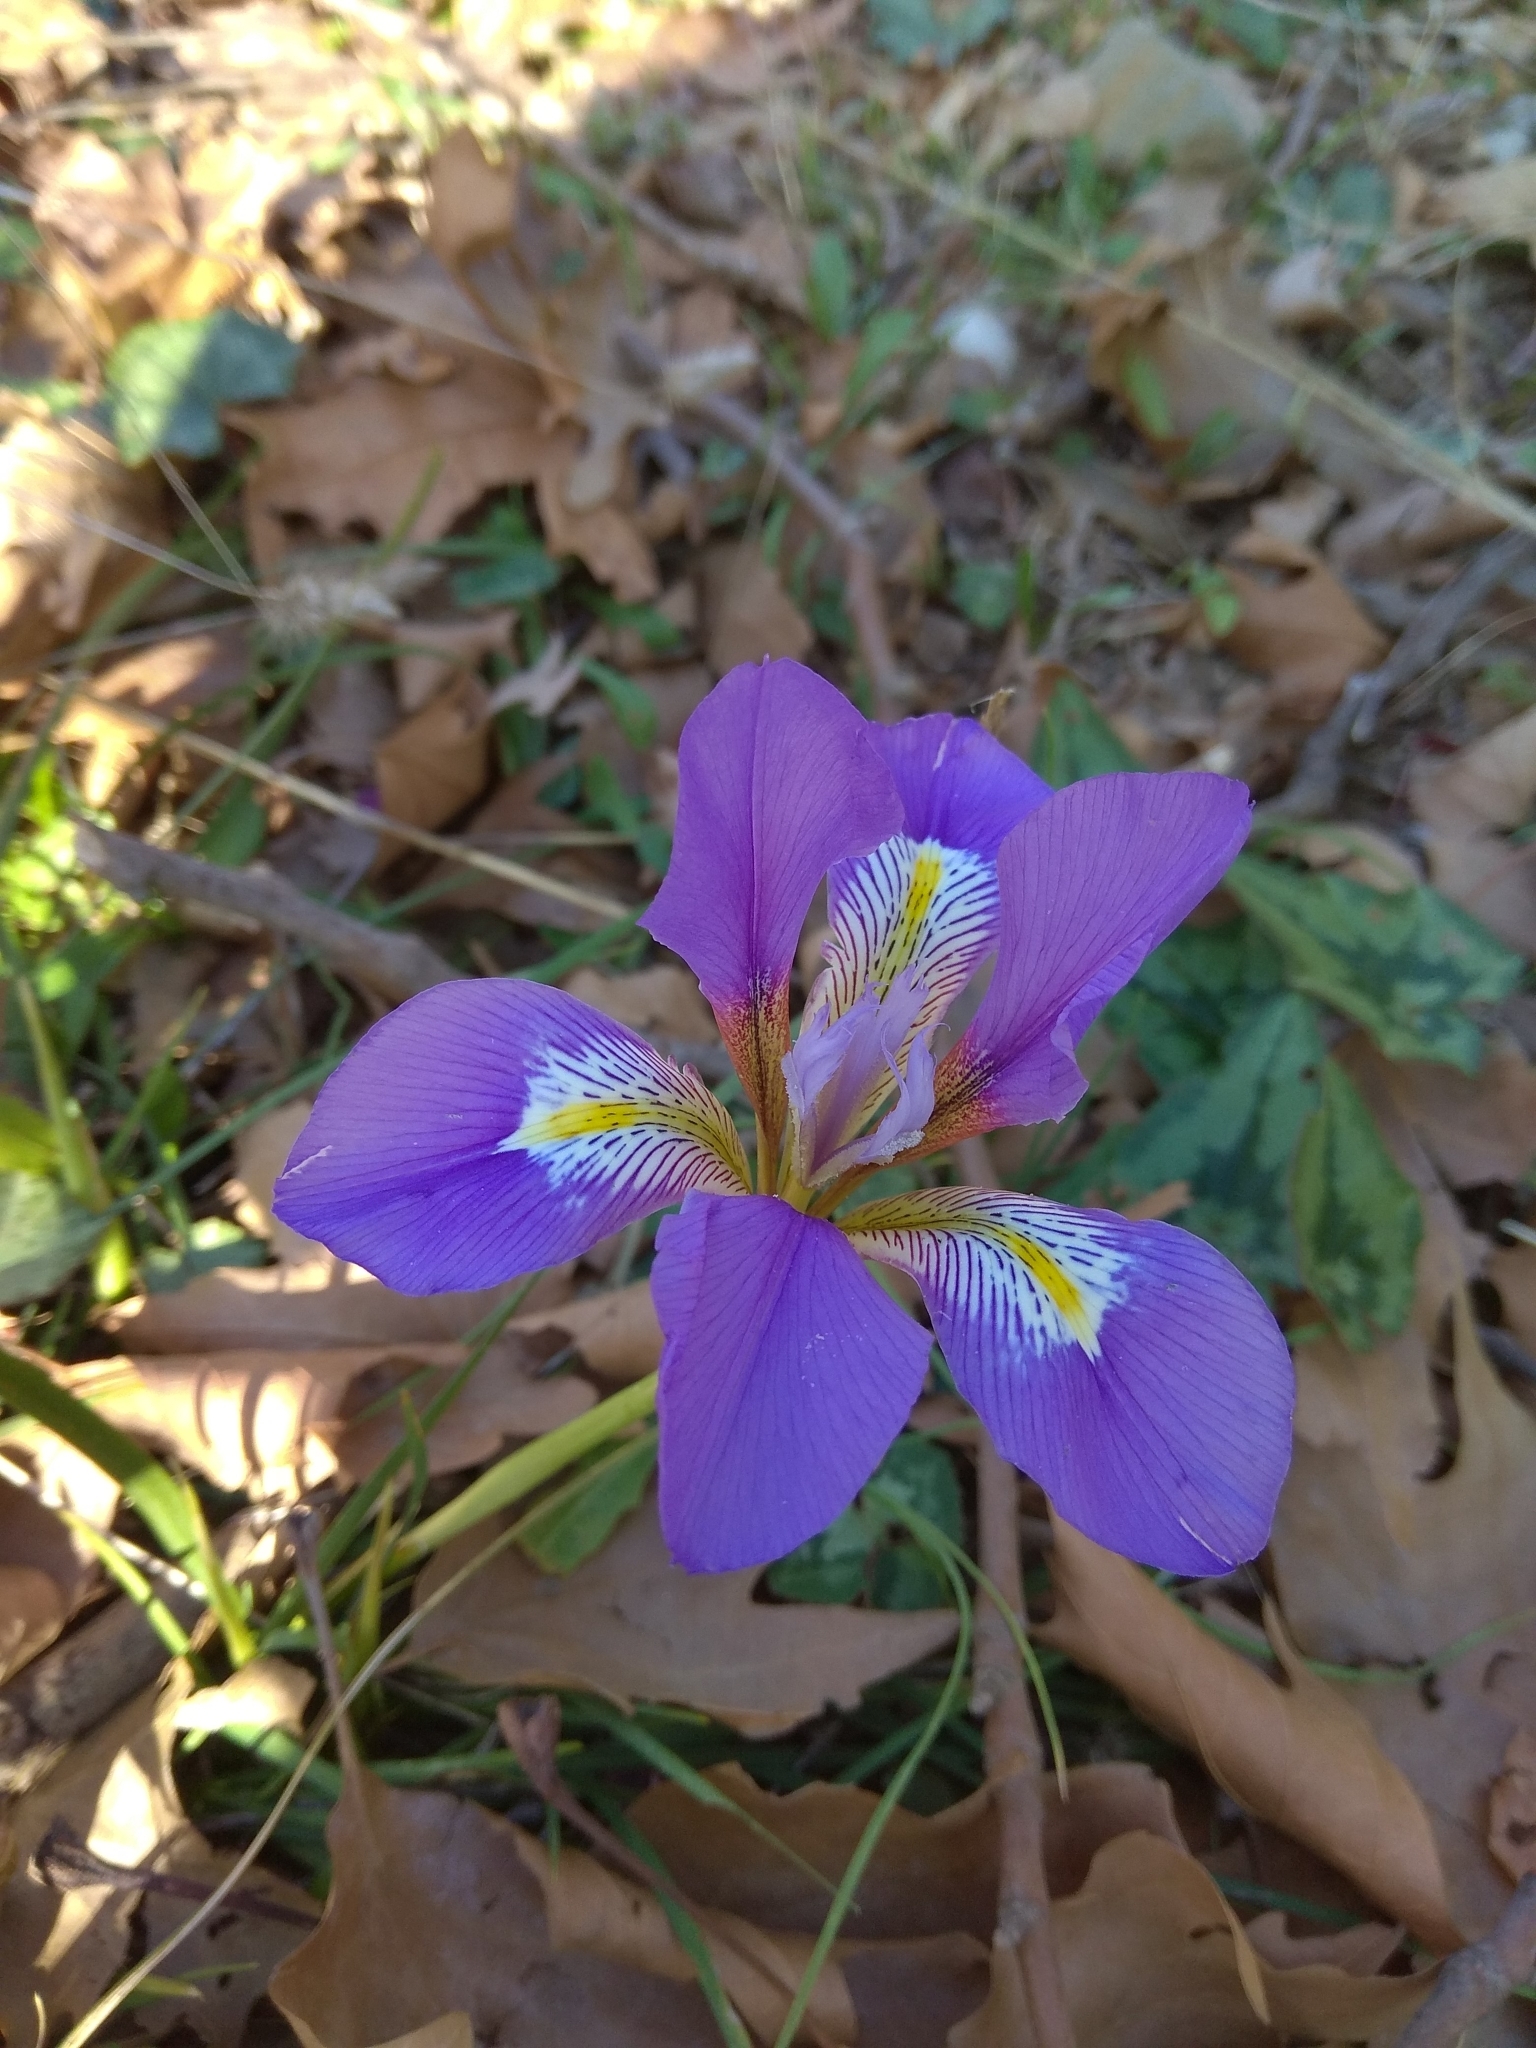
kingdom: Plantae
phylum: Tracheophyta
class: Liliopsida
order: Asparagales
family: Iridaceae
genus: Iris
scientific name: Iris unguicularis
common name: Algerian iris
